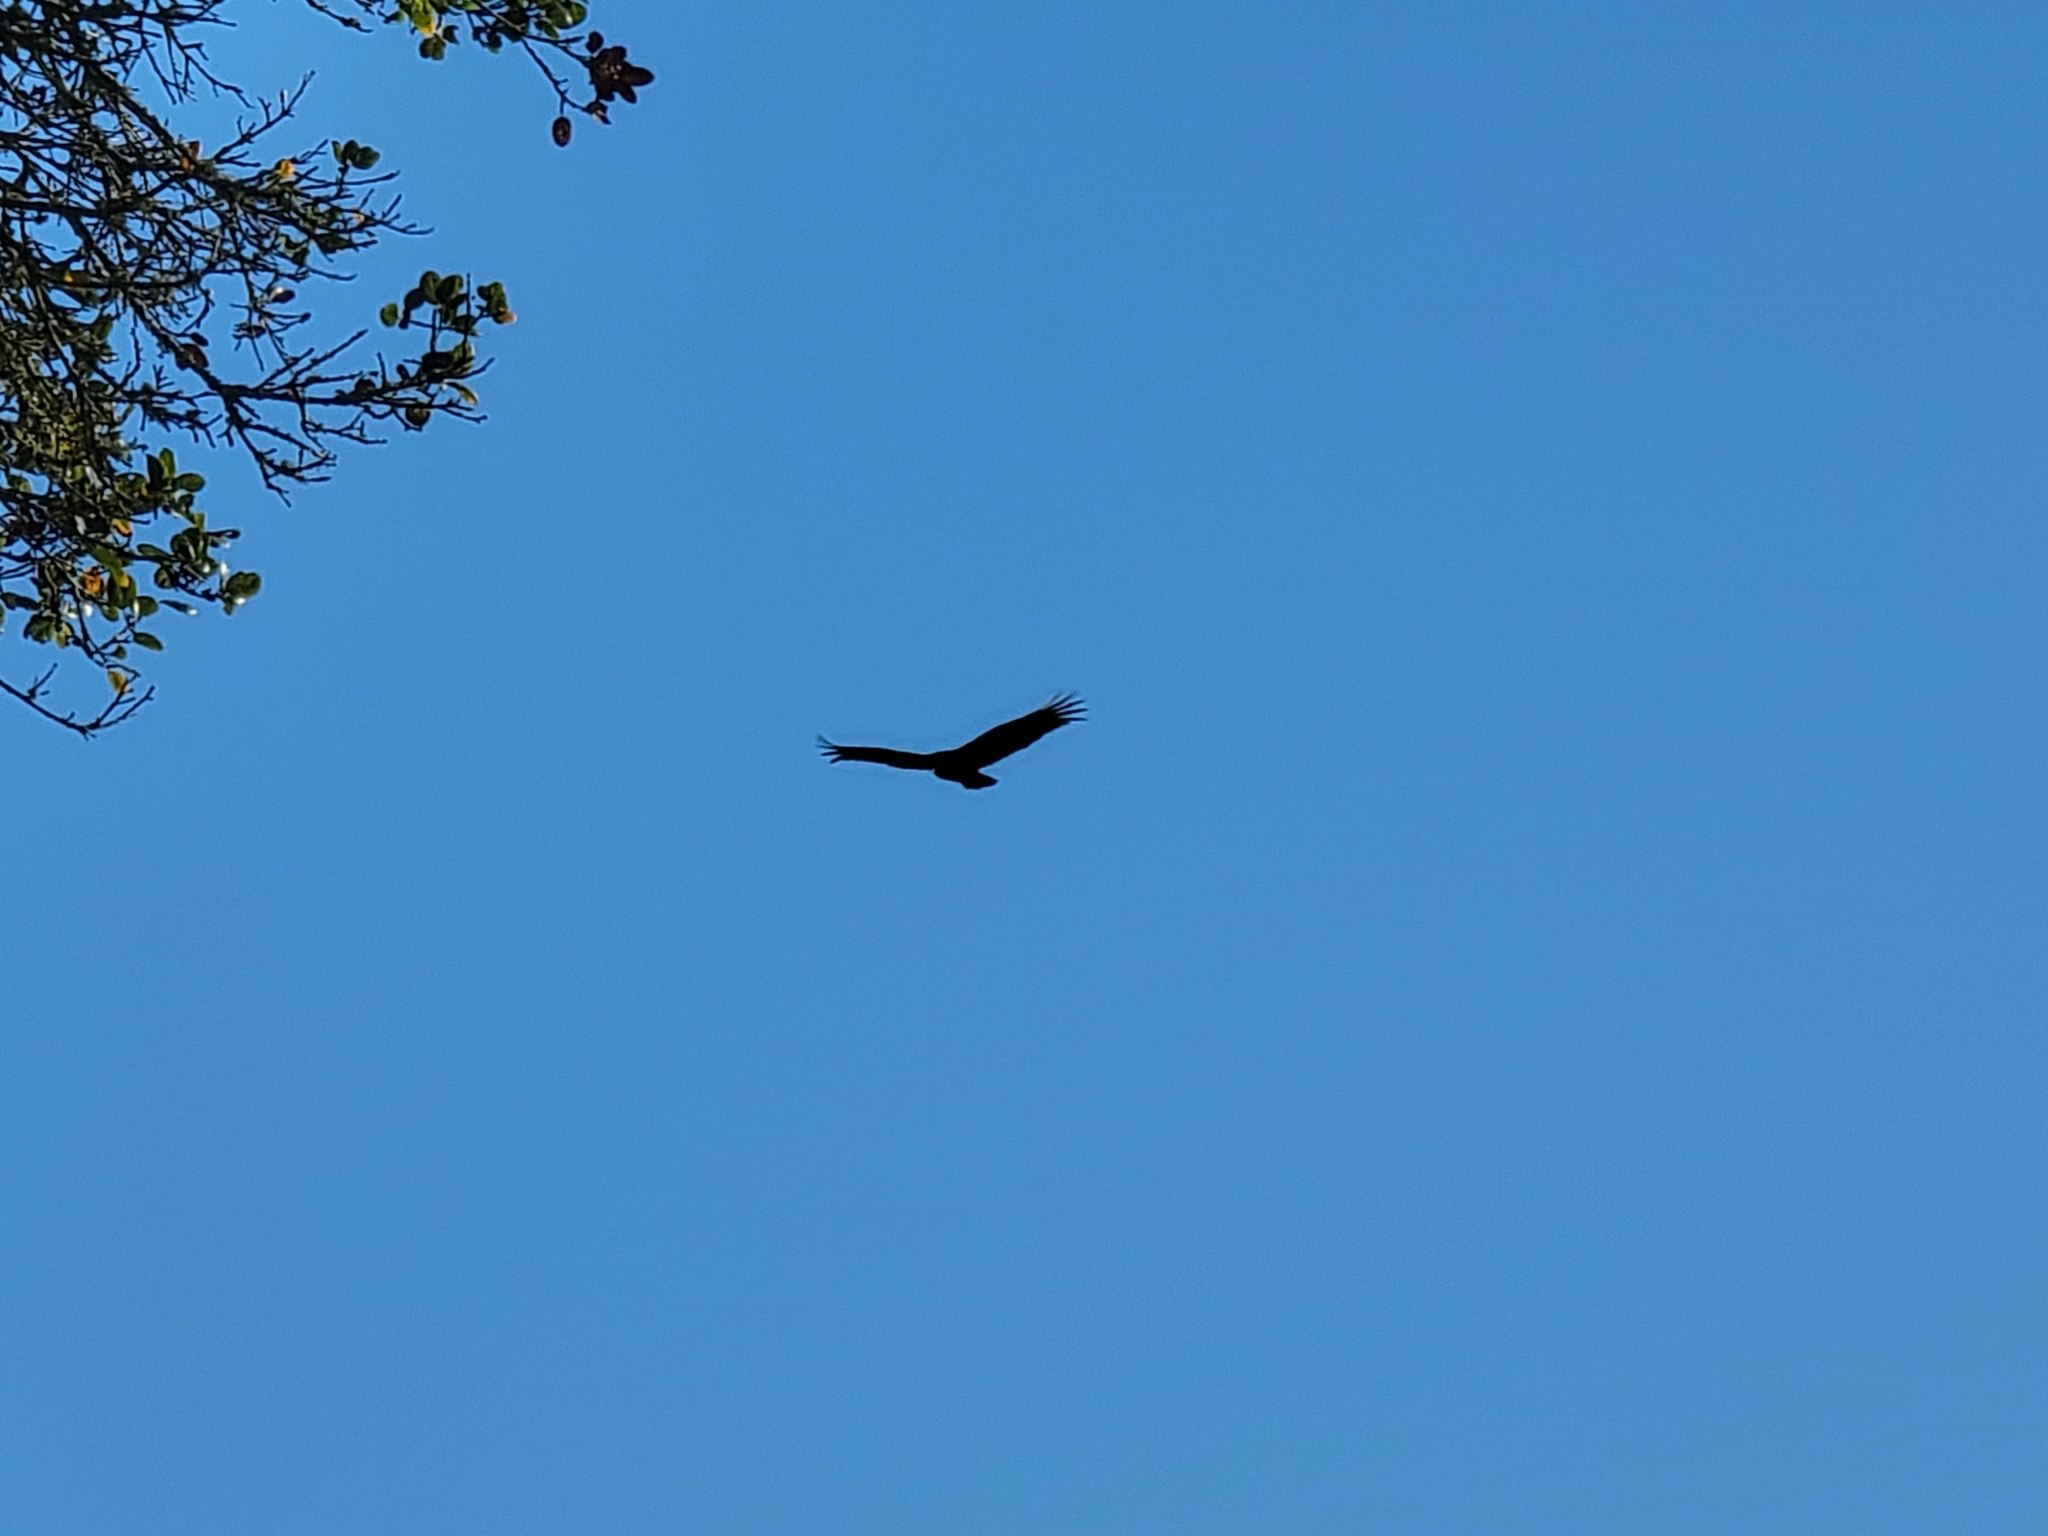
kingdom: Animalia
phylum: Chordata
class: Aves
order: Accipitriformes
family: Cathartidae
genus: Cathartes
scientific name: Cathartes aura
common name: Turkey vulture
